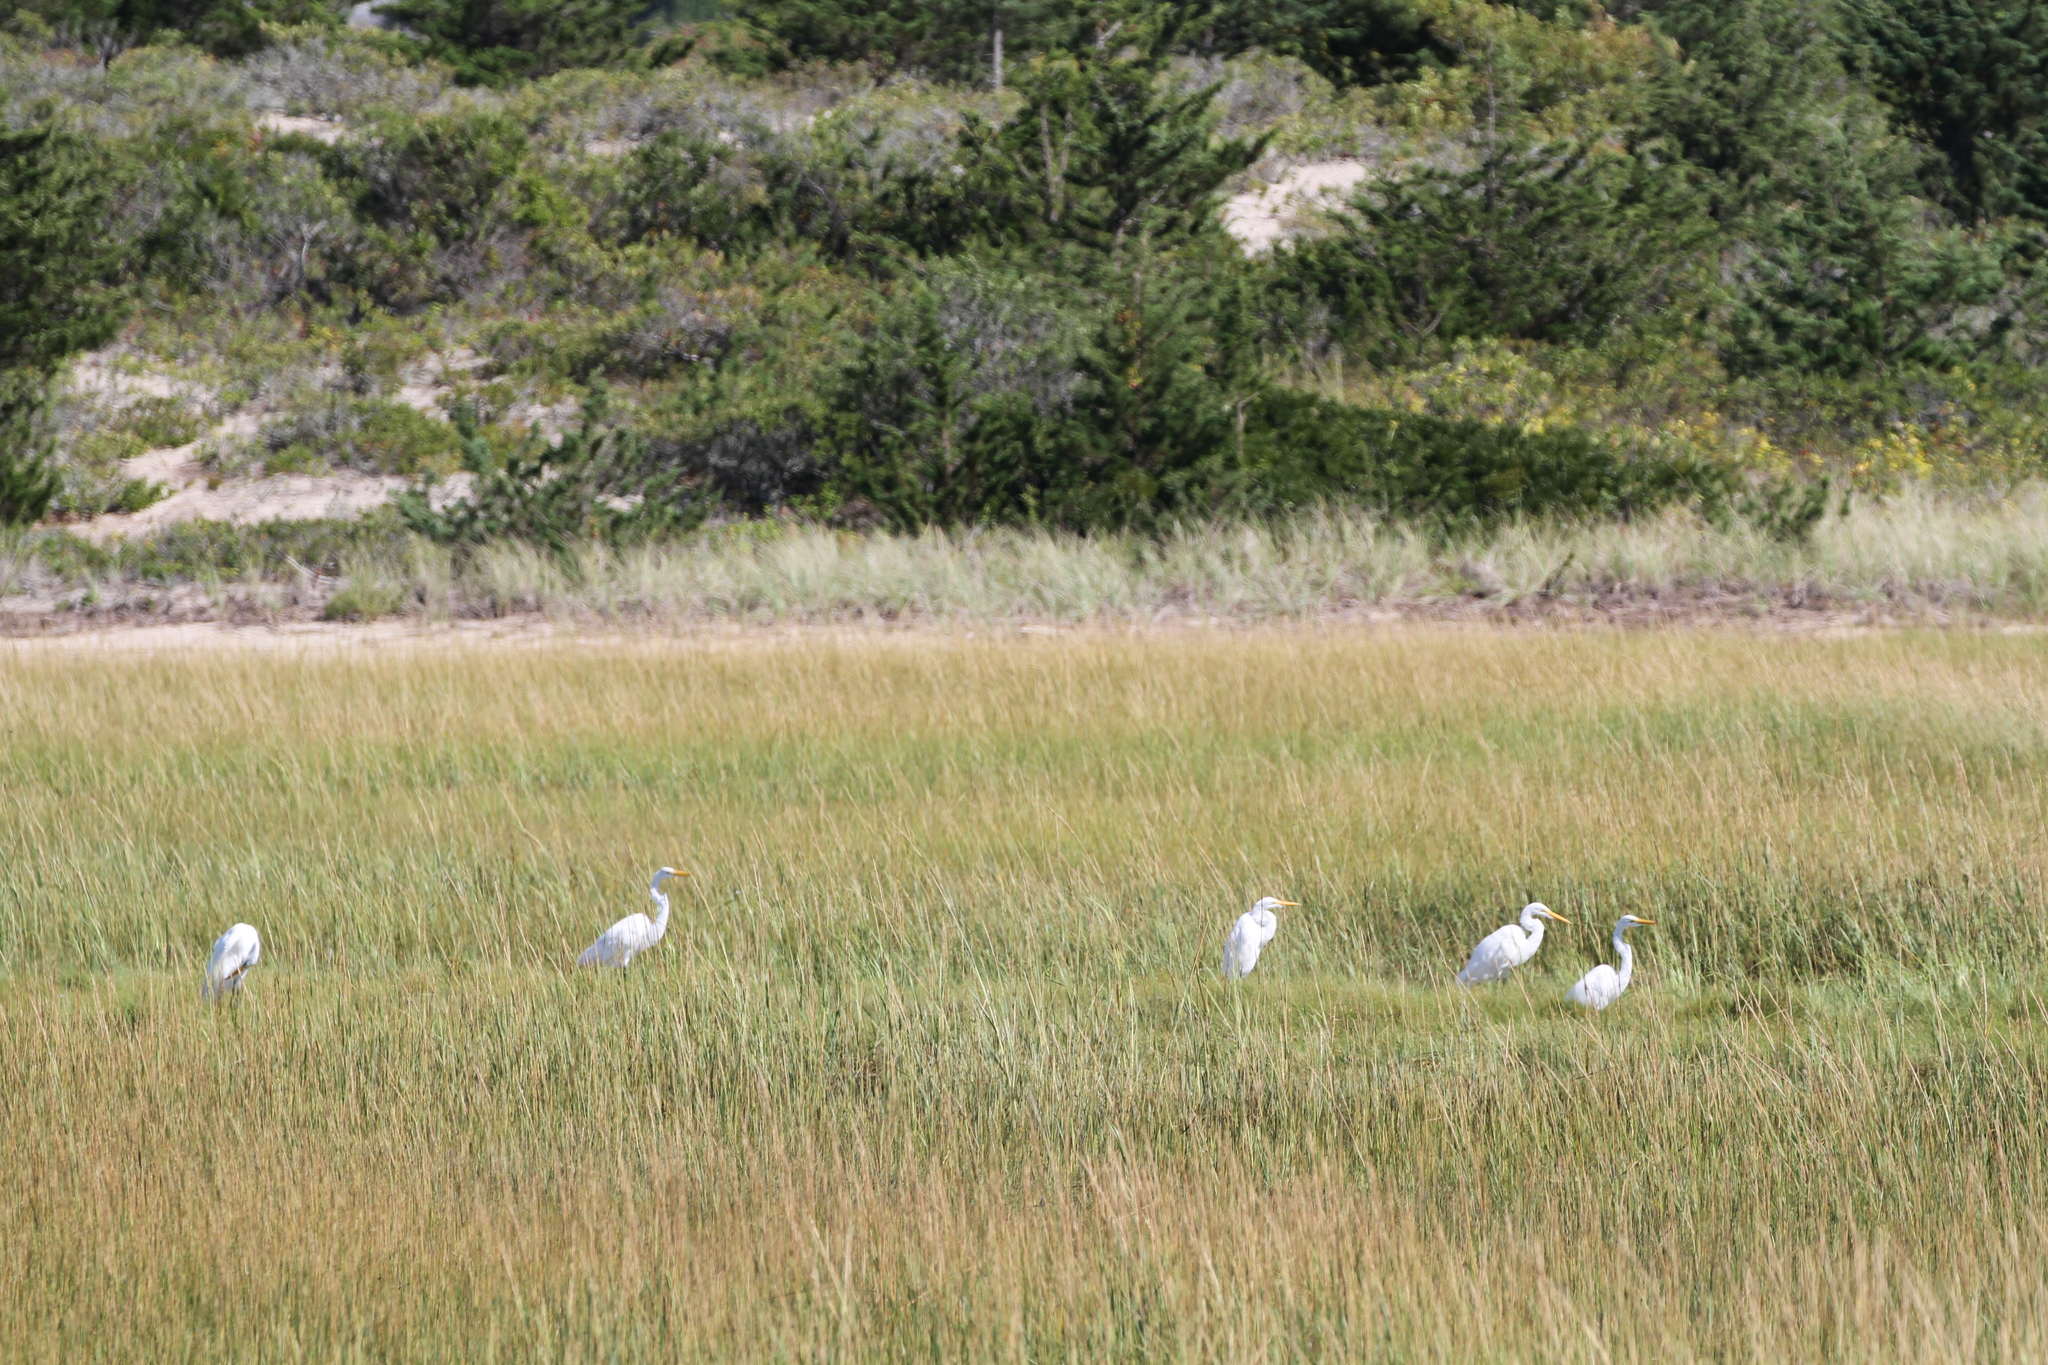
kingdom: Animalia
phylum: Chordata
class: Aves
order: Pelecaniformes
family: Ardeidae
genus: Ardea
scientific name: Ardea alba
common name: Great egret
